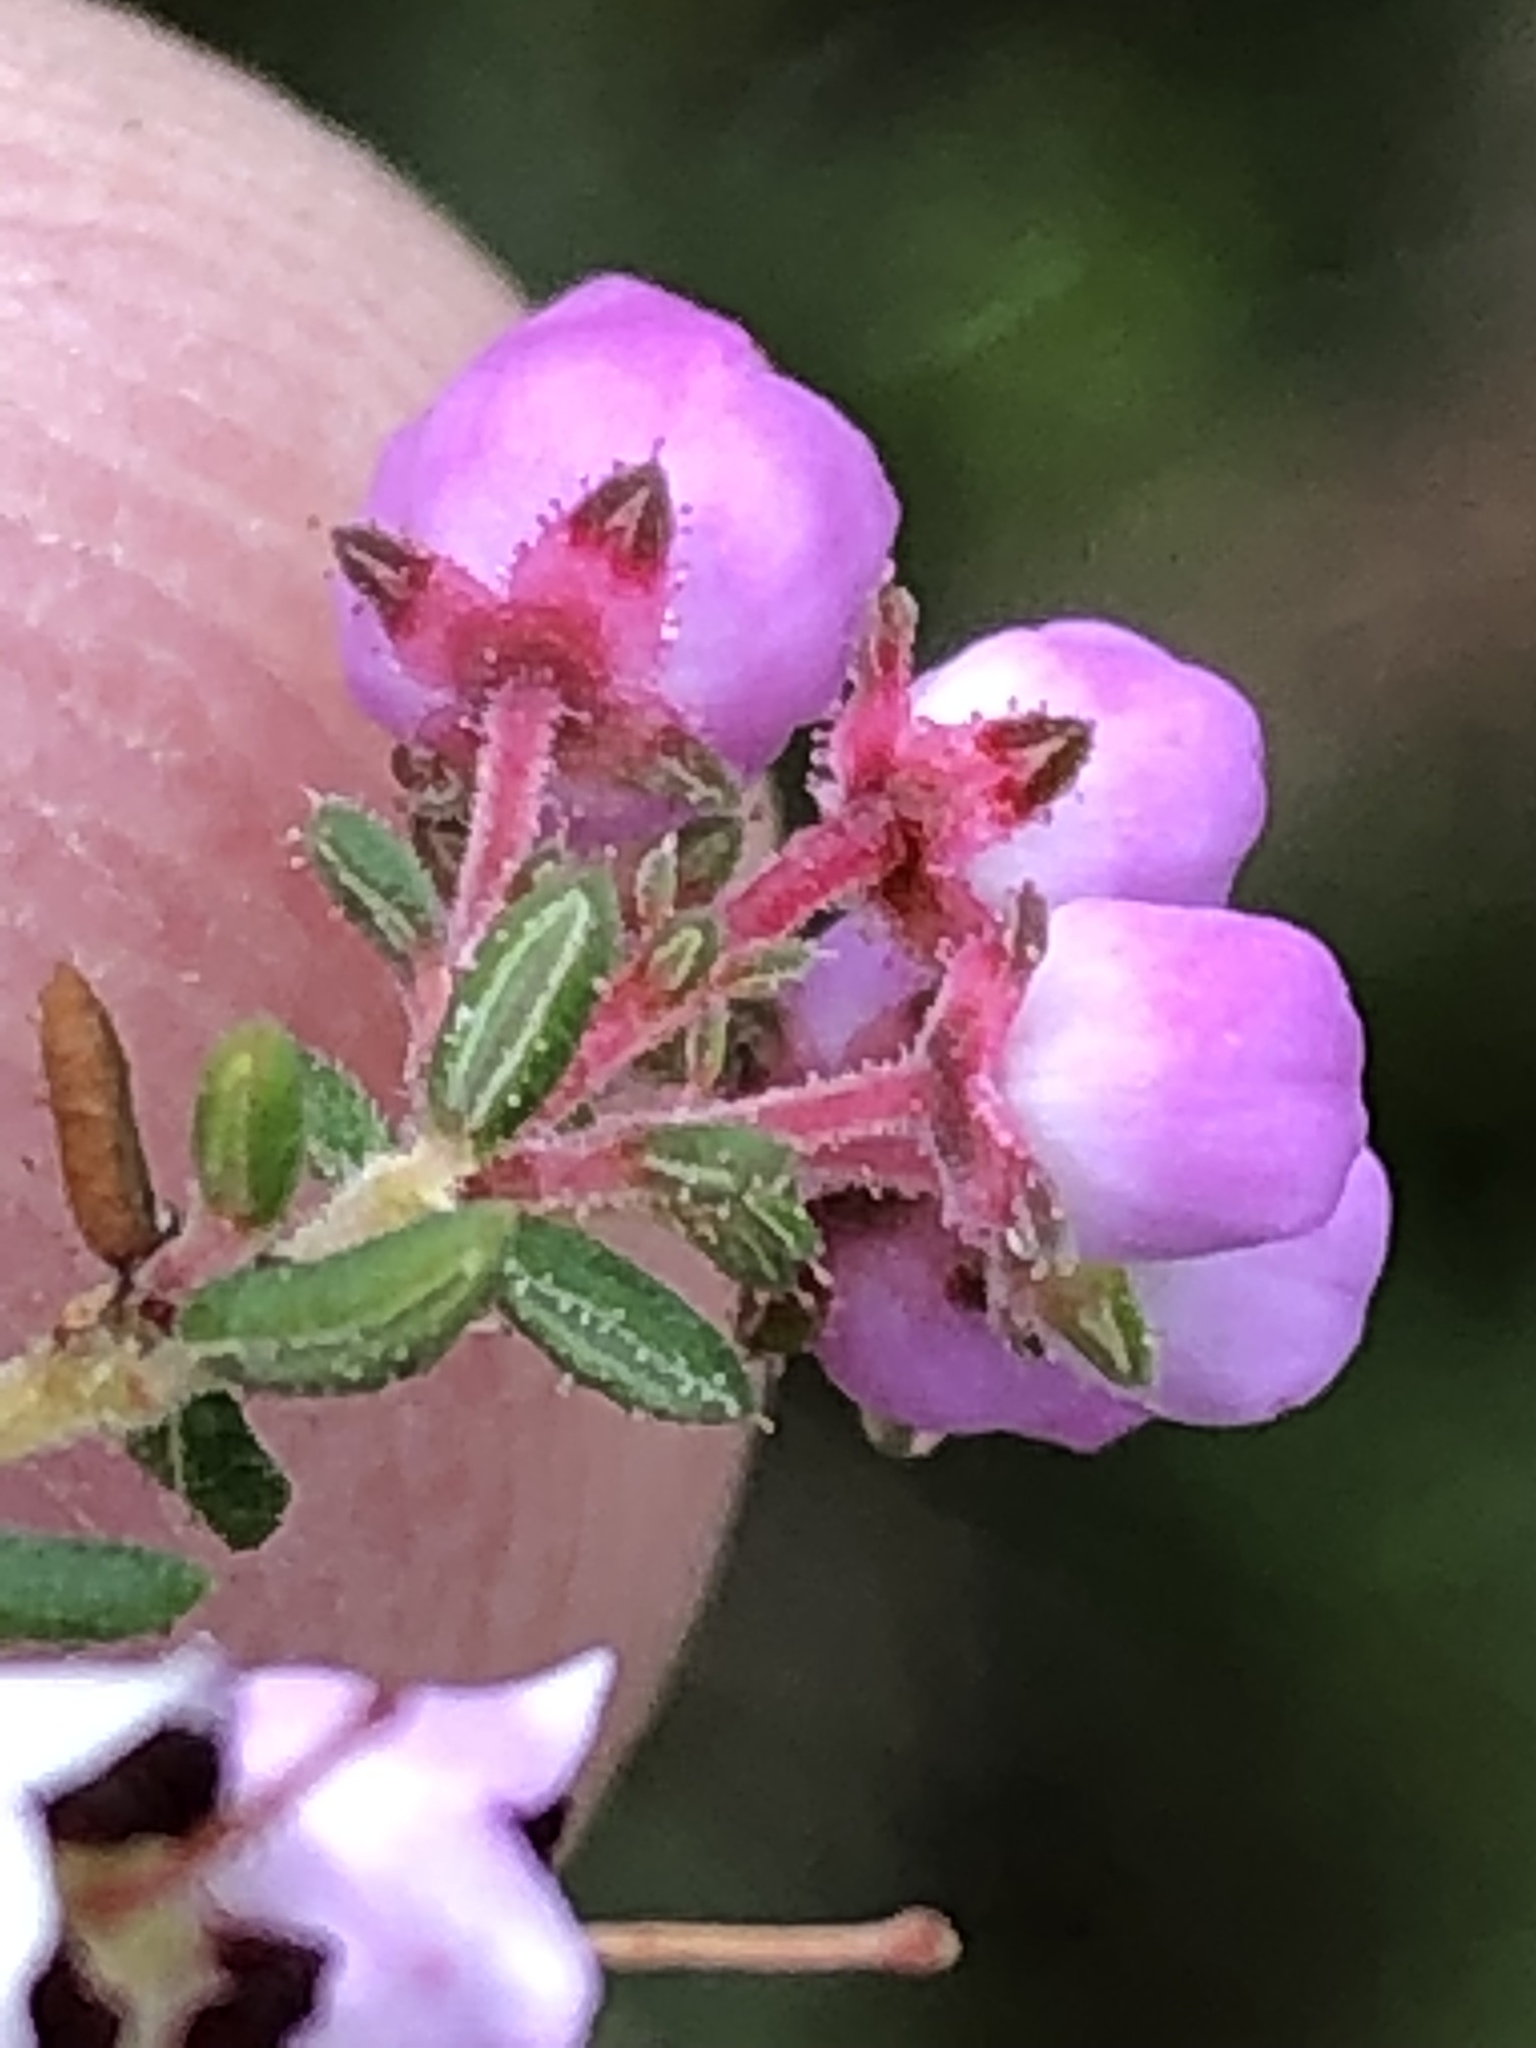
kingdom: Plantae
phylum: Tracheophyta
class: Magnoliopsida
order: Ericales
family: Ericaceae
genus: Erica
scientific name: Erica bicolor
